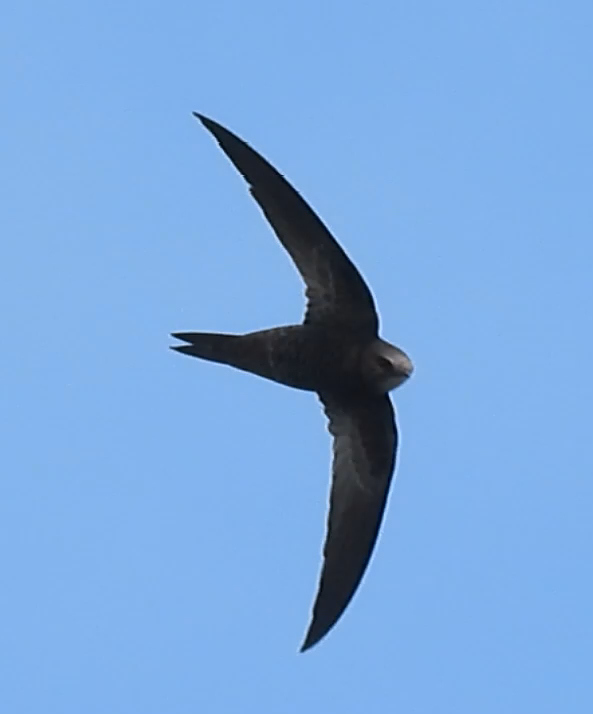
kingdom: Animalia
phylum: Chordata
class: Aves
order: Apodiformes
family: Apodidae
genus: Apus
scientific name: Apus barbatus
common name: African black swift
